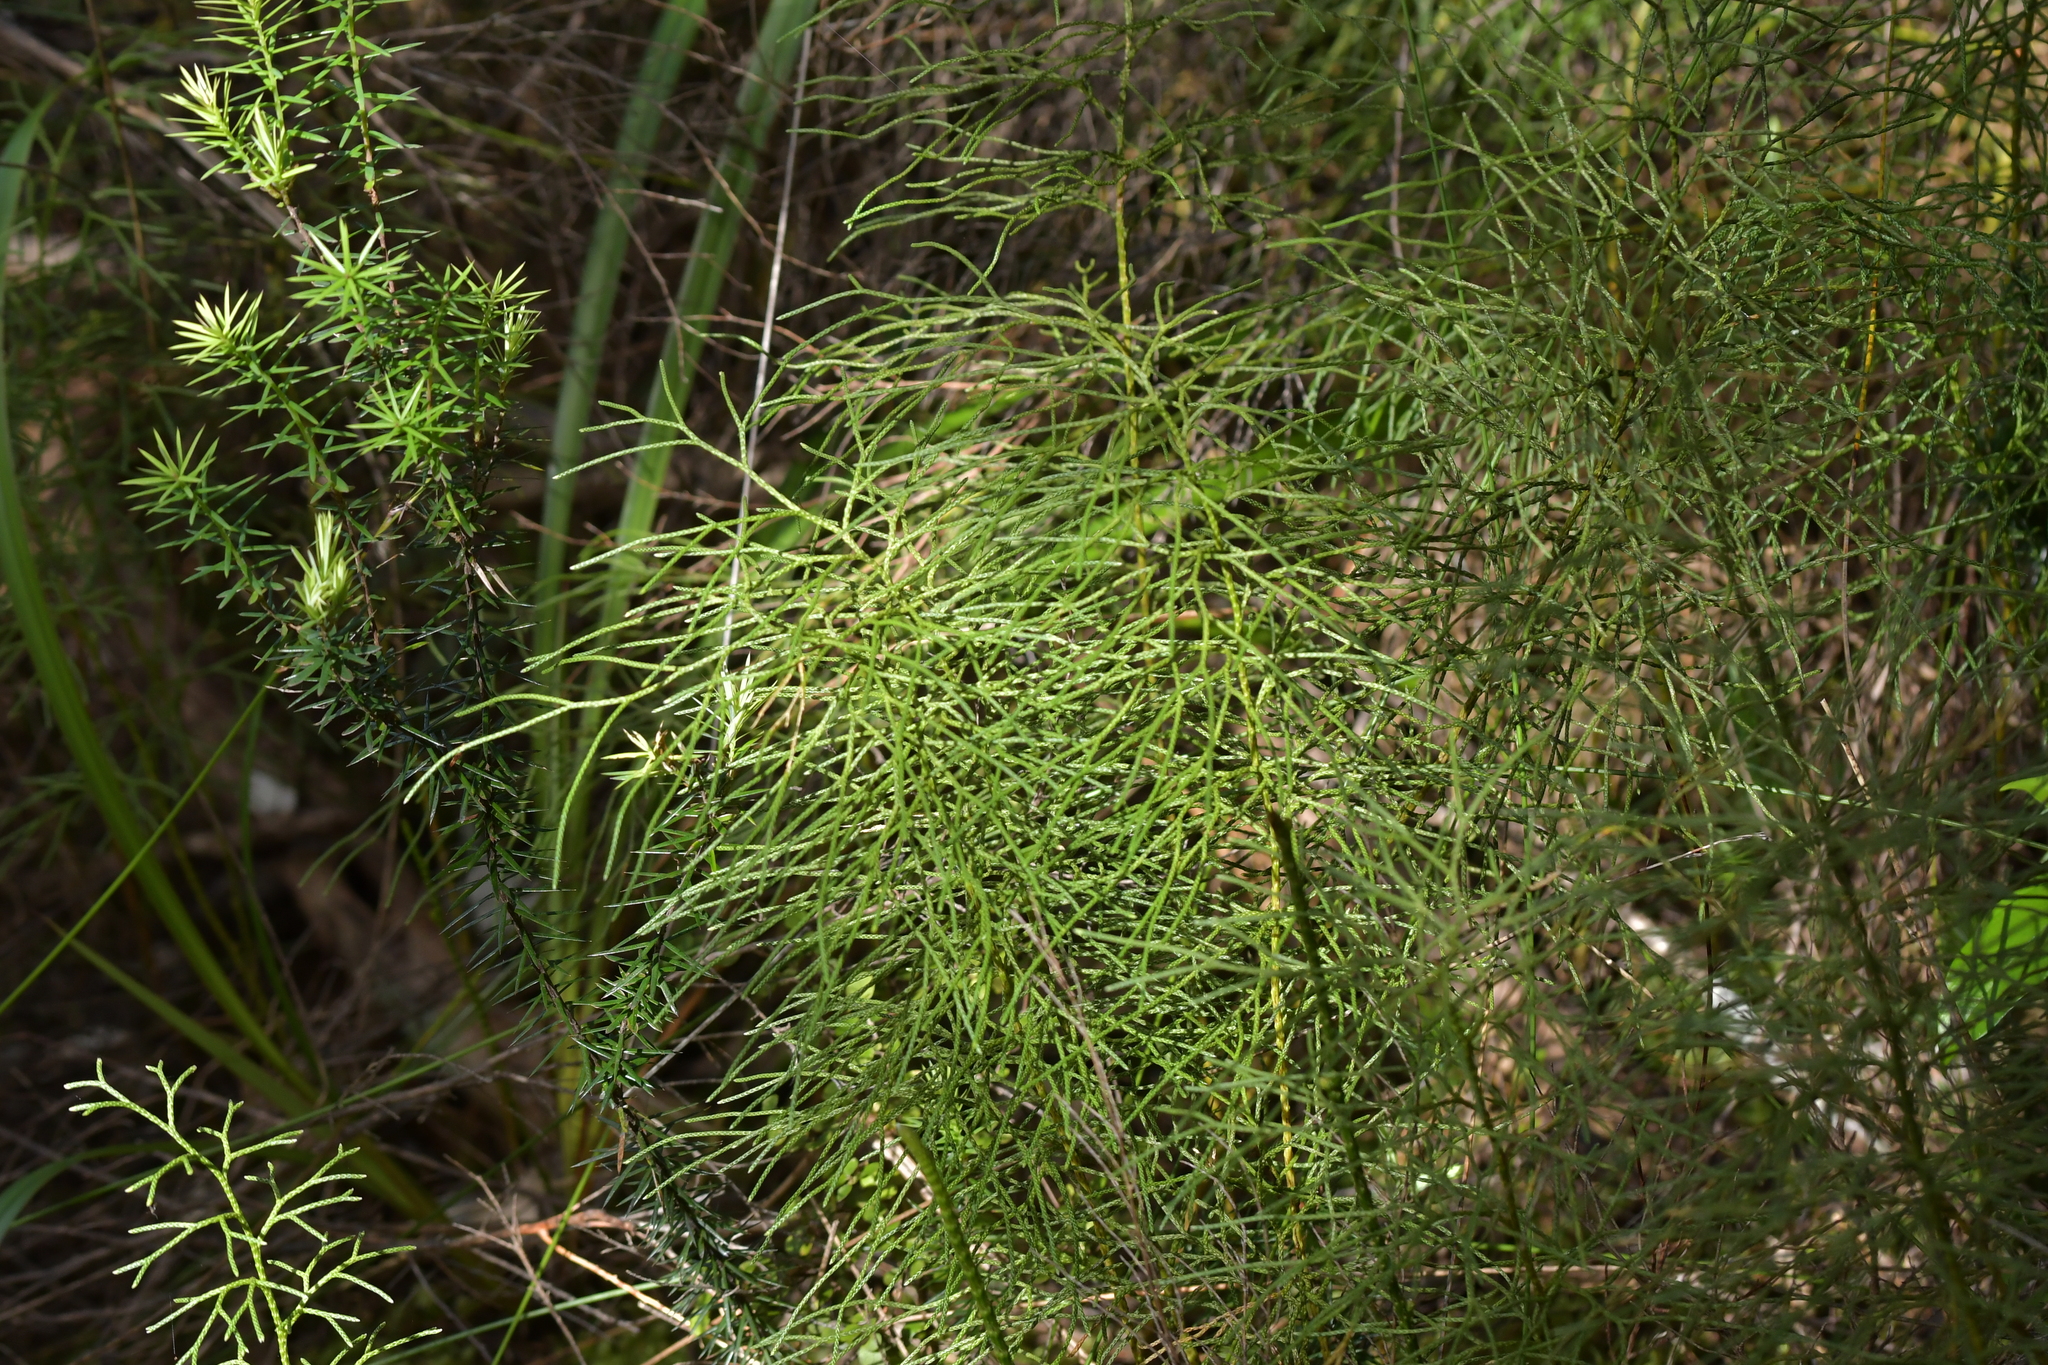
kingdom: Plantae
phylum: Tracheophyta
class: Lycopodiopsida
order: Lycopodiales
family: Lycopodiaceae
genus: Pseudolycopodium
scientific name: Pseudolycopodium densum
